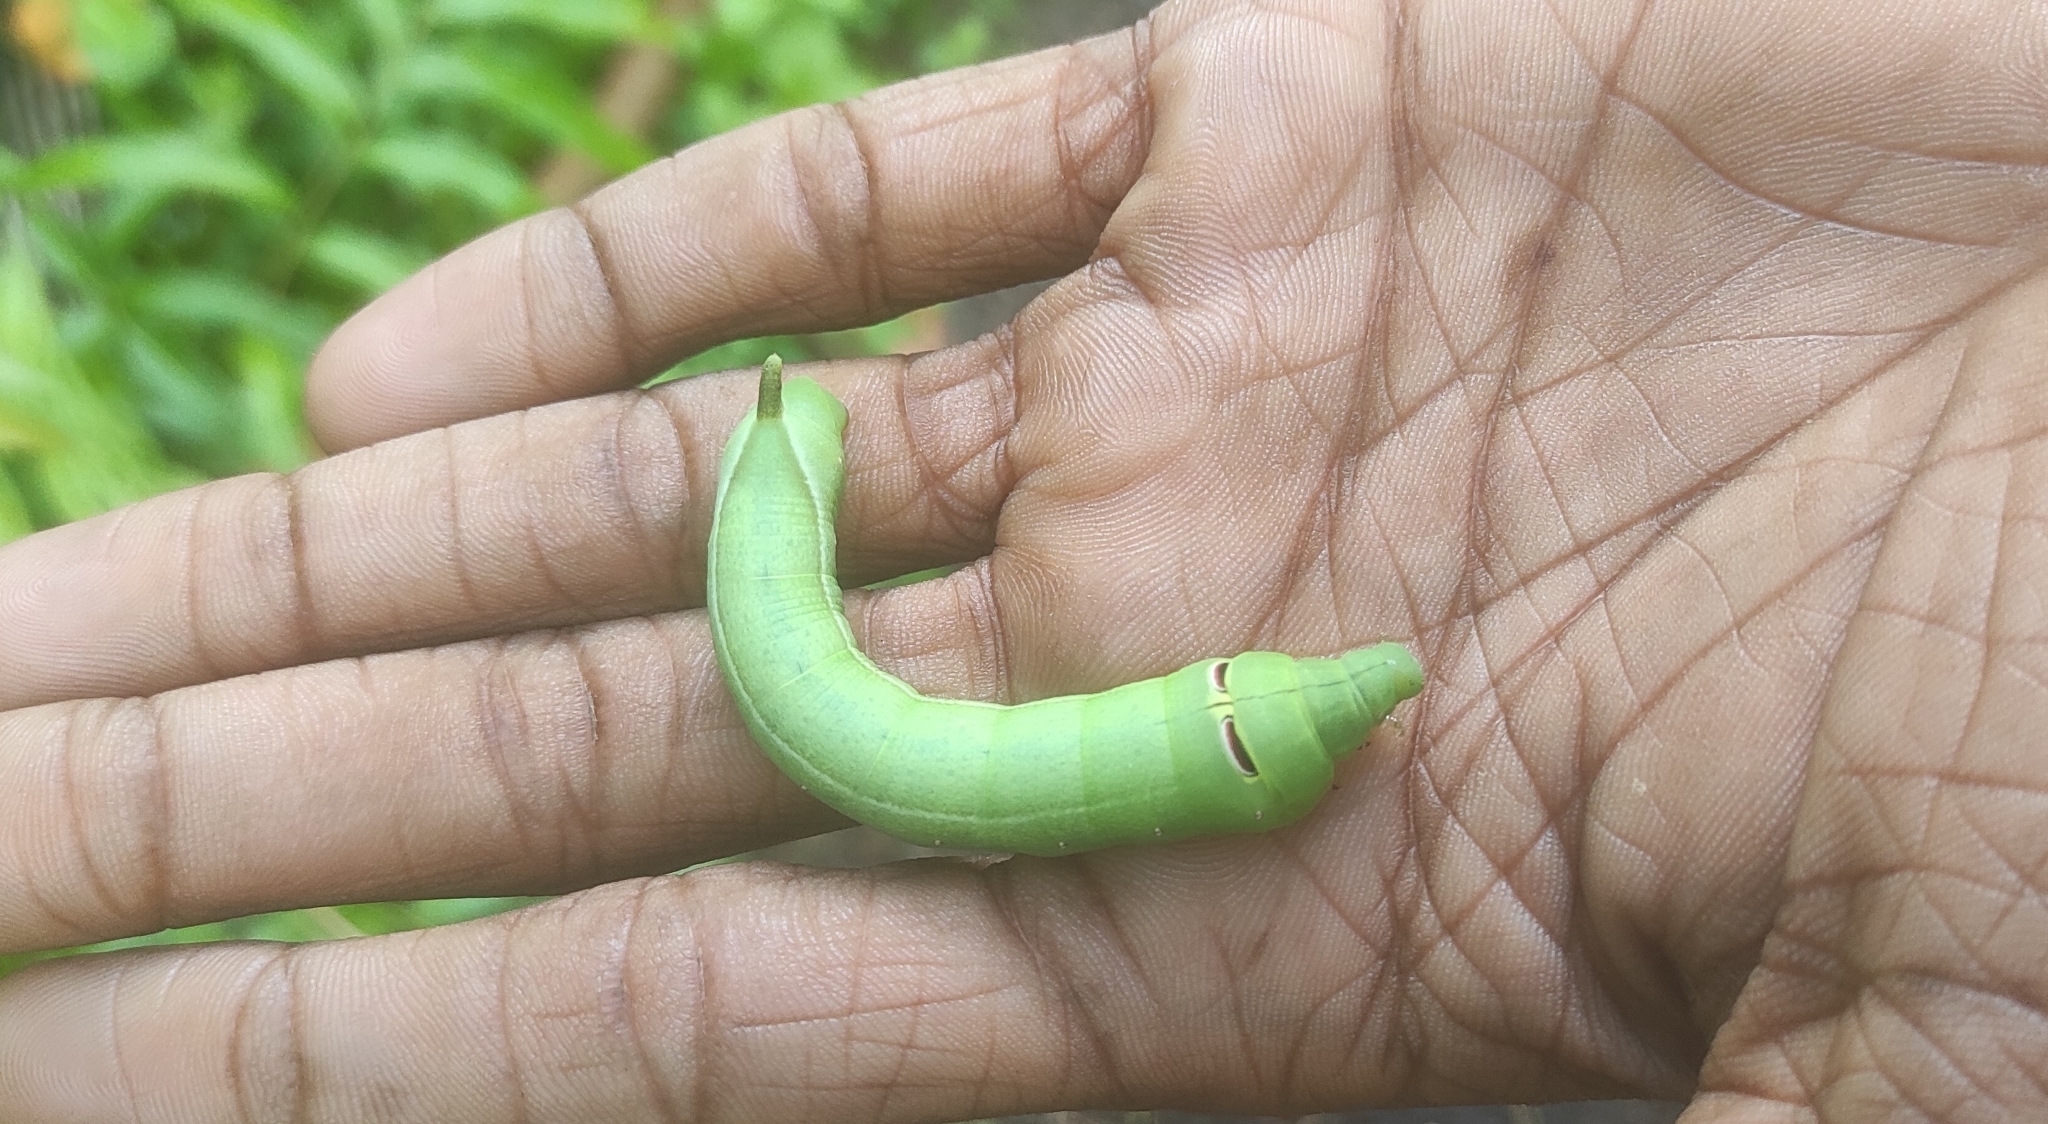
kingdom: Animalia
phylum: Arthropoda
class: Insecta
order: Lepidoptera
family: Sphingidae
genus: Theretra
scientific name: Theretra rhesus
